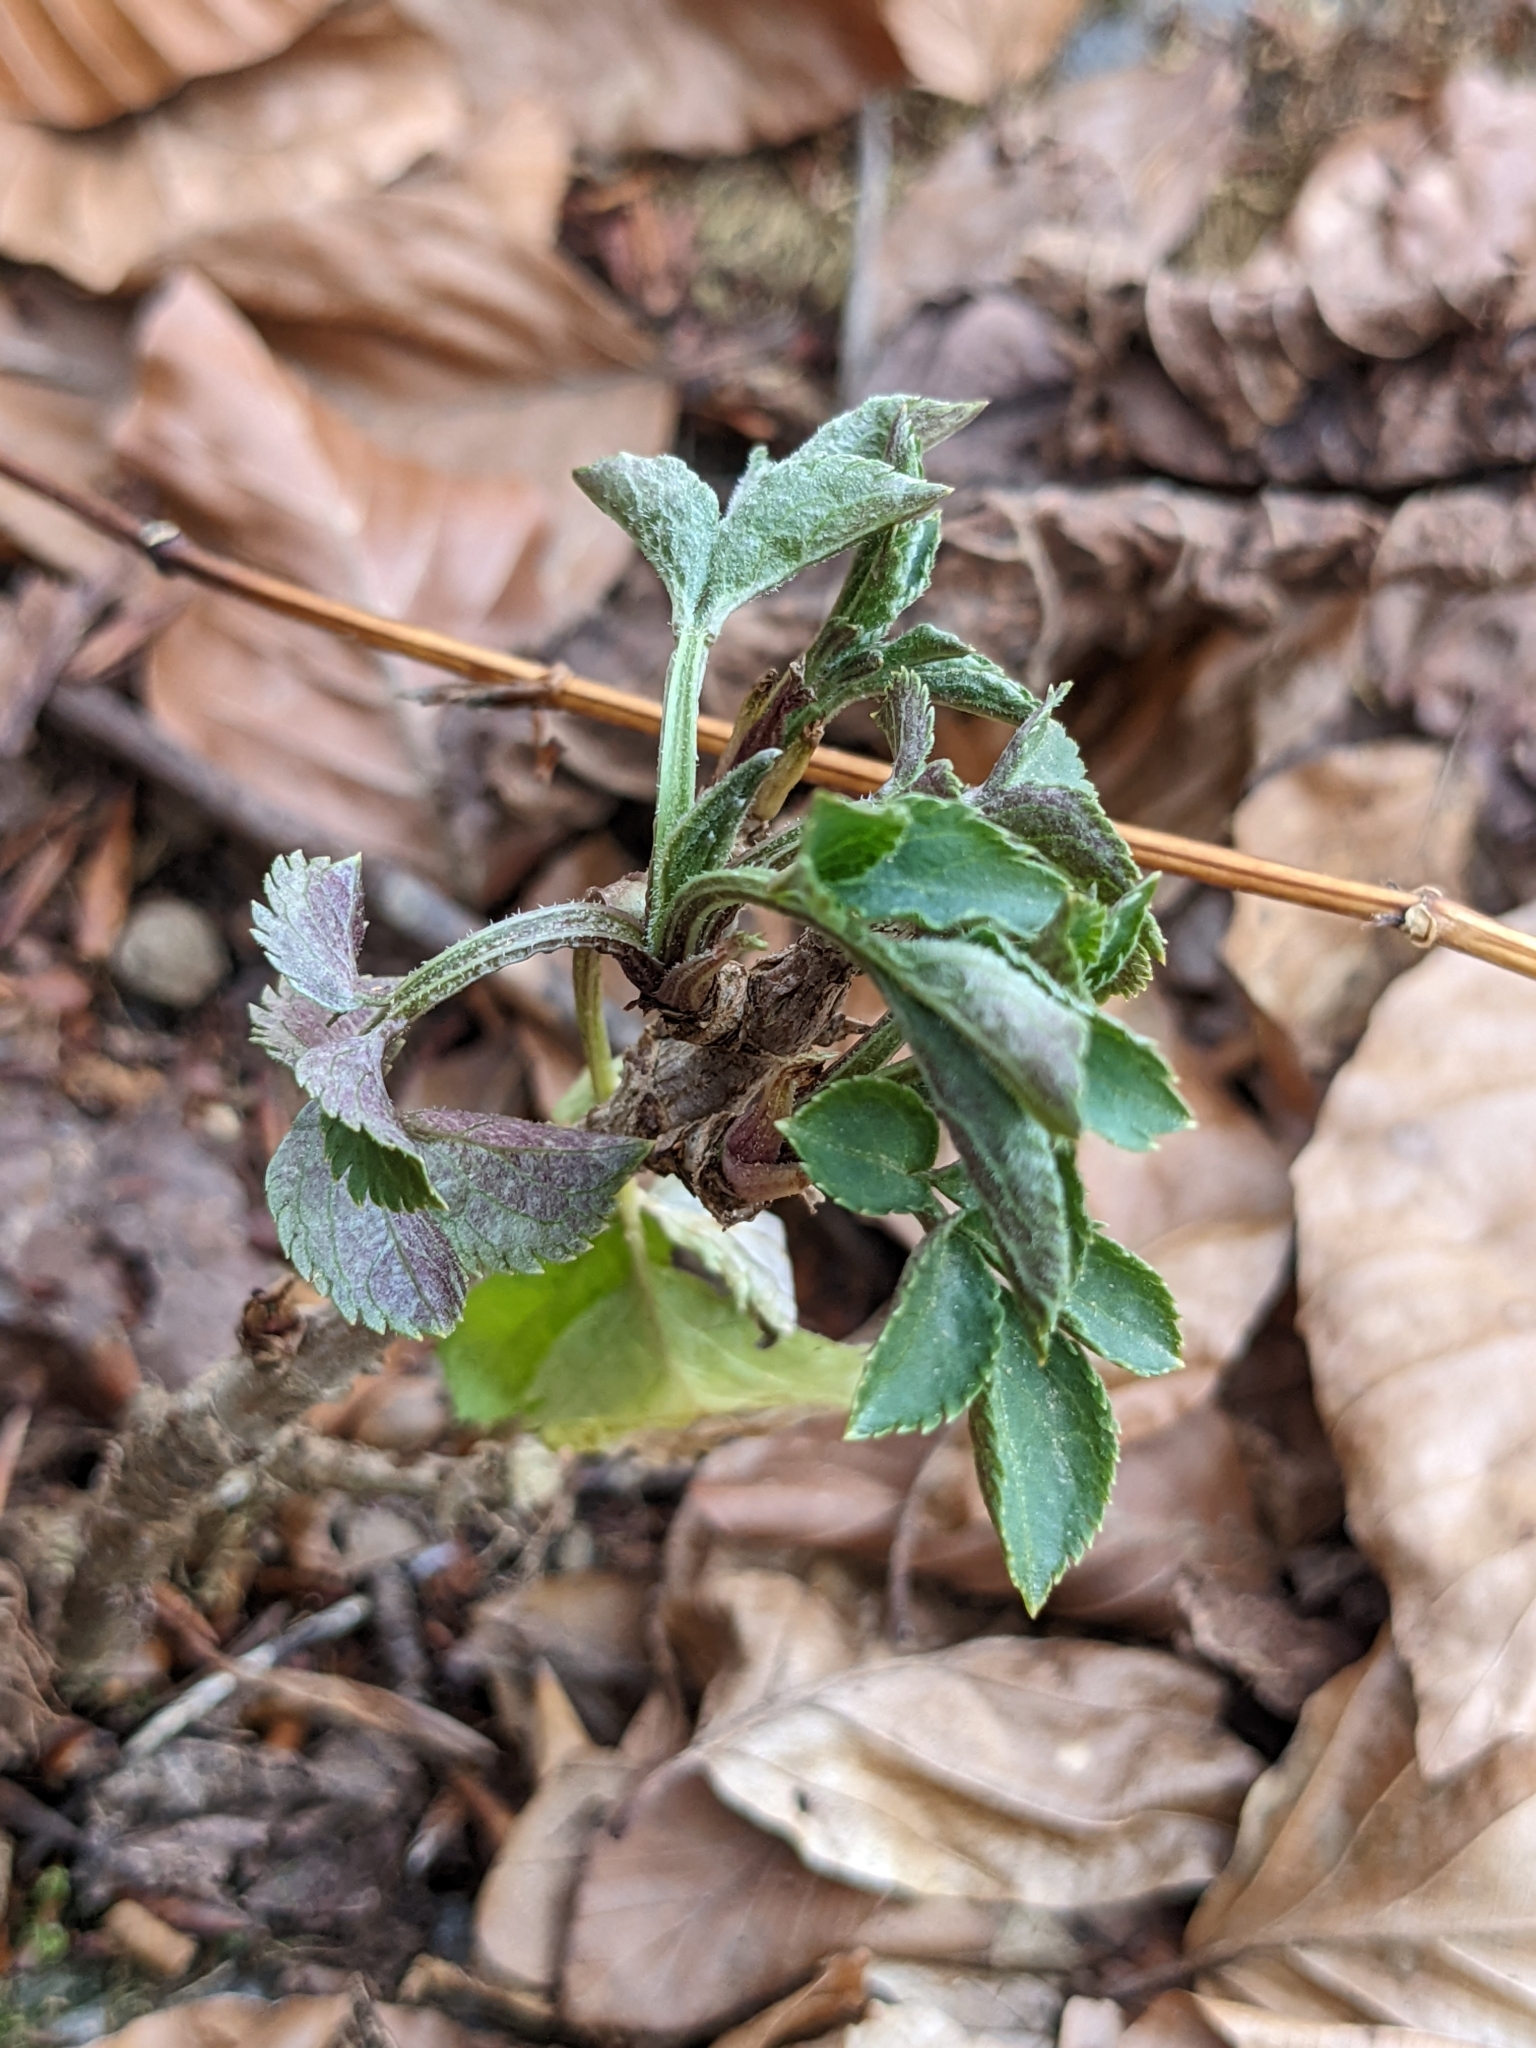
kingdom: Plantae
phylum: Tracheophyta
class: Magnoliopsida
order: Dipsacales
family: Viburnaceae
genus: Sambucus
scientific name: Sambucus nigra
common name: Elder
